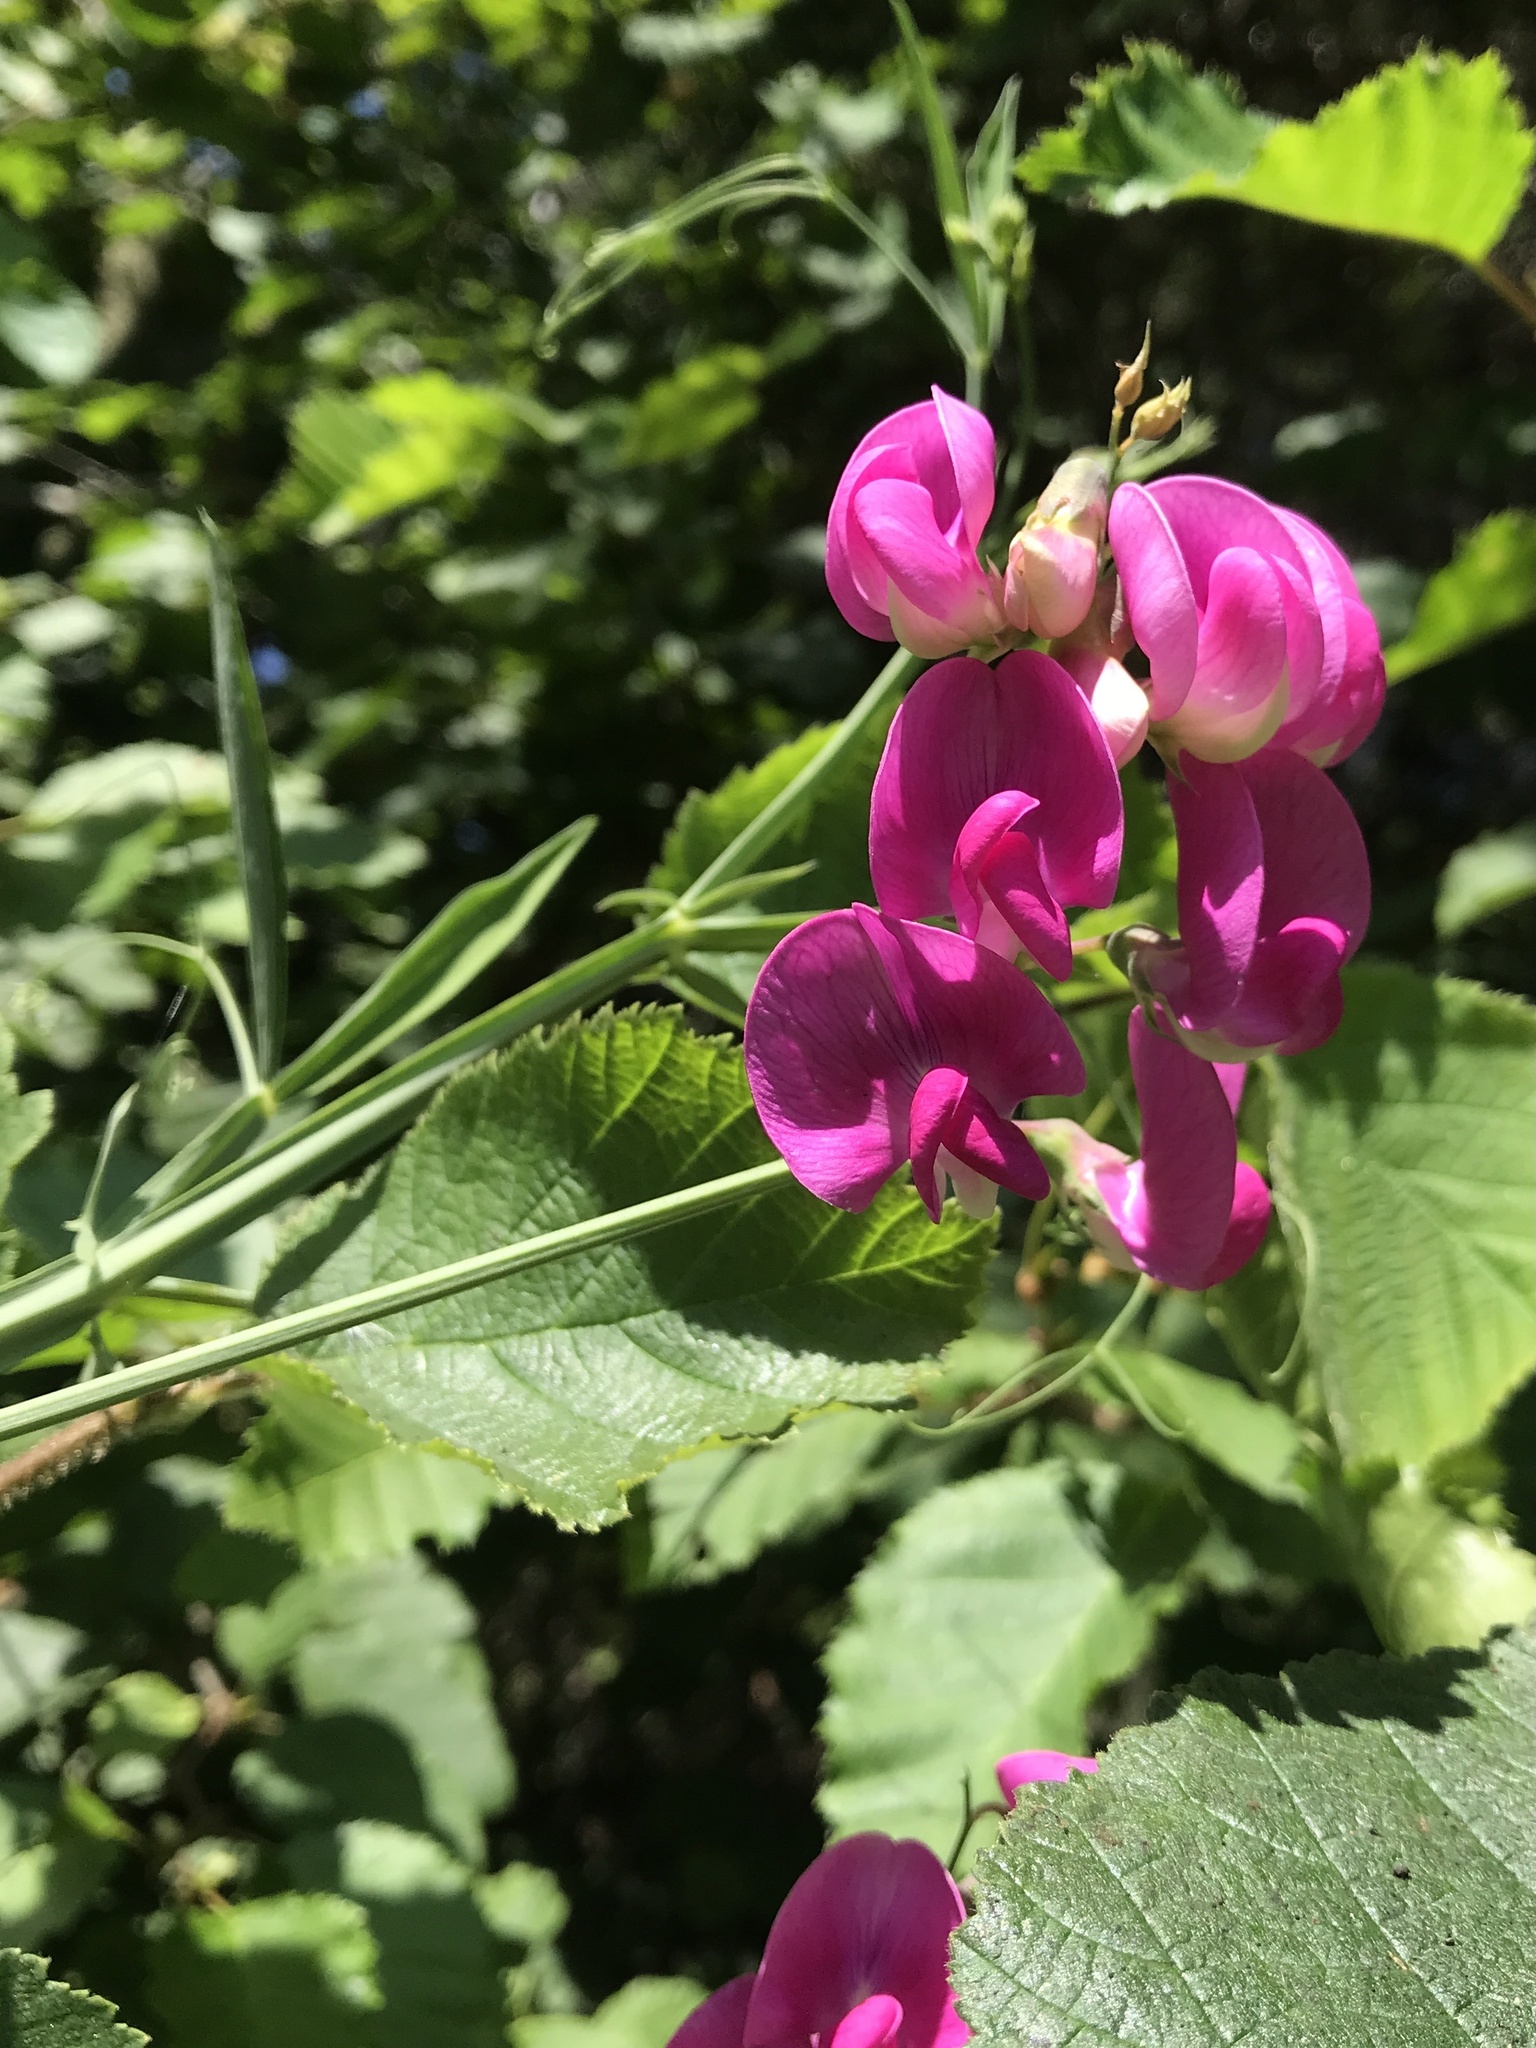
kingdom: Plantae
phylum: Tracheophyta
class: Magnoliopsida
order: Fabales
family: Fabaceae
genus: Lathyrus
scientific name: Lathyrus latifolius
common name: Perennial pea
